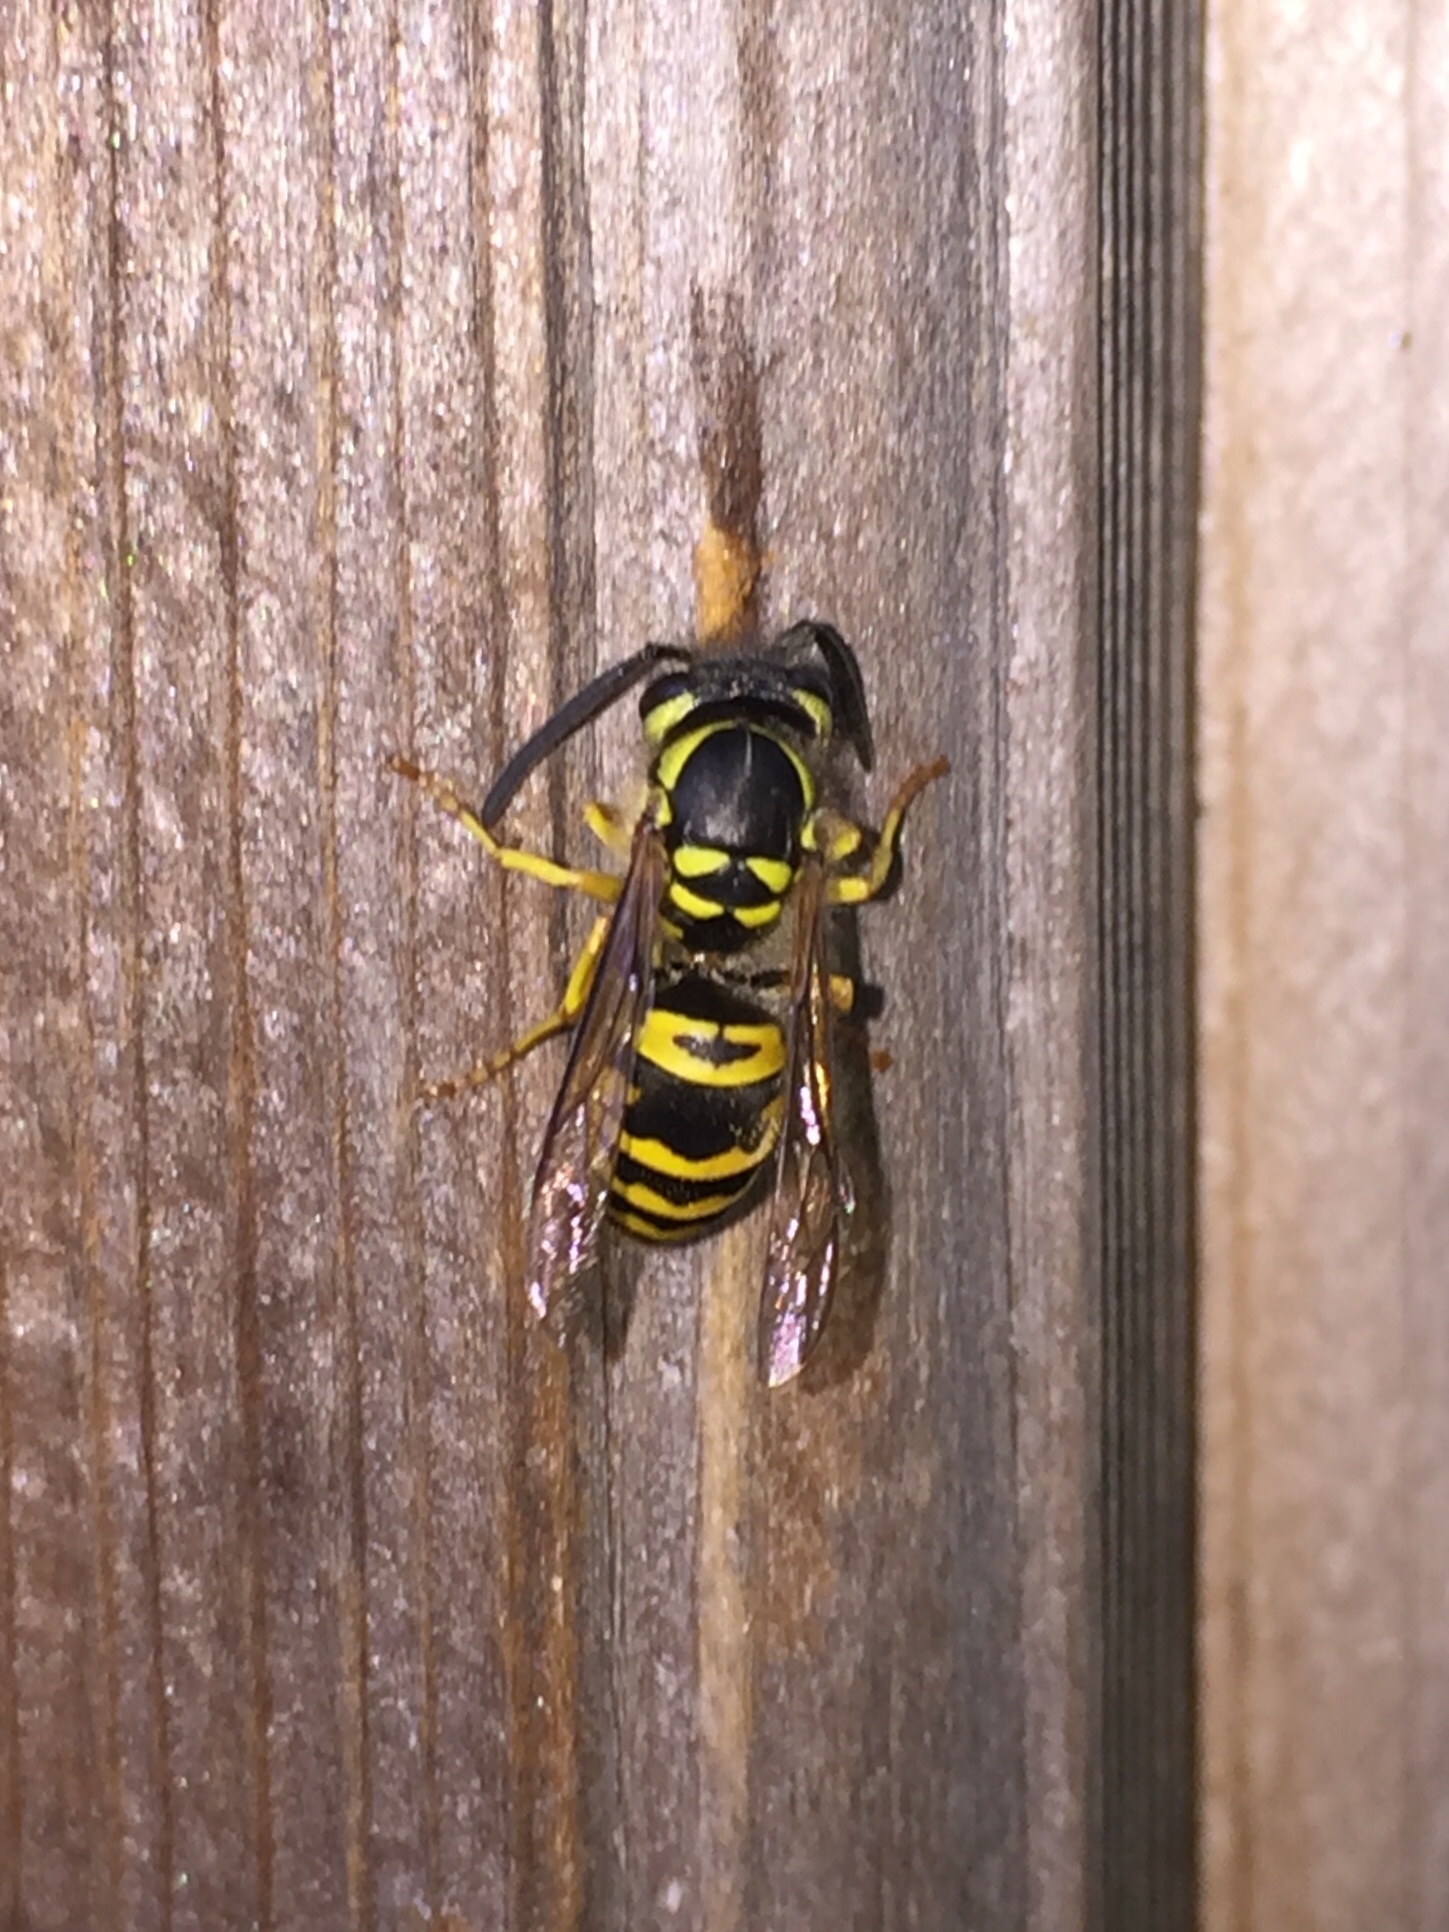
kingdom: Animalia
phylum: Arthropoda
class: Insecta
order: Hymenoptera
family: Vespidae
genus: Vespula
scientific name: Vespula maculifrons
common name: Eastern yellowjacket
